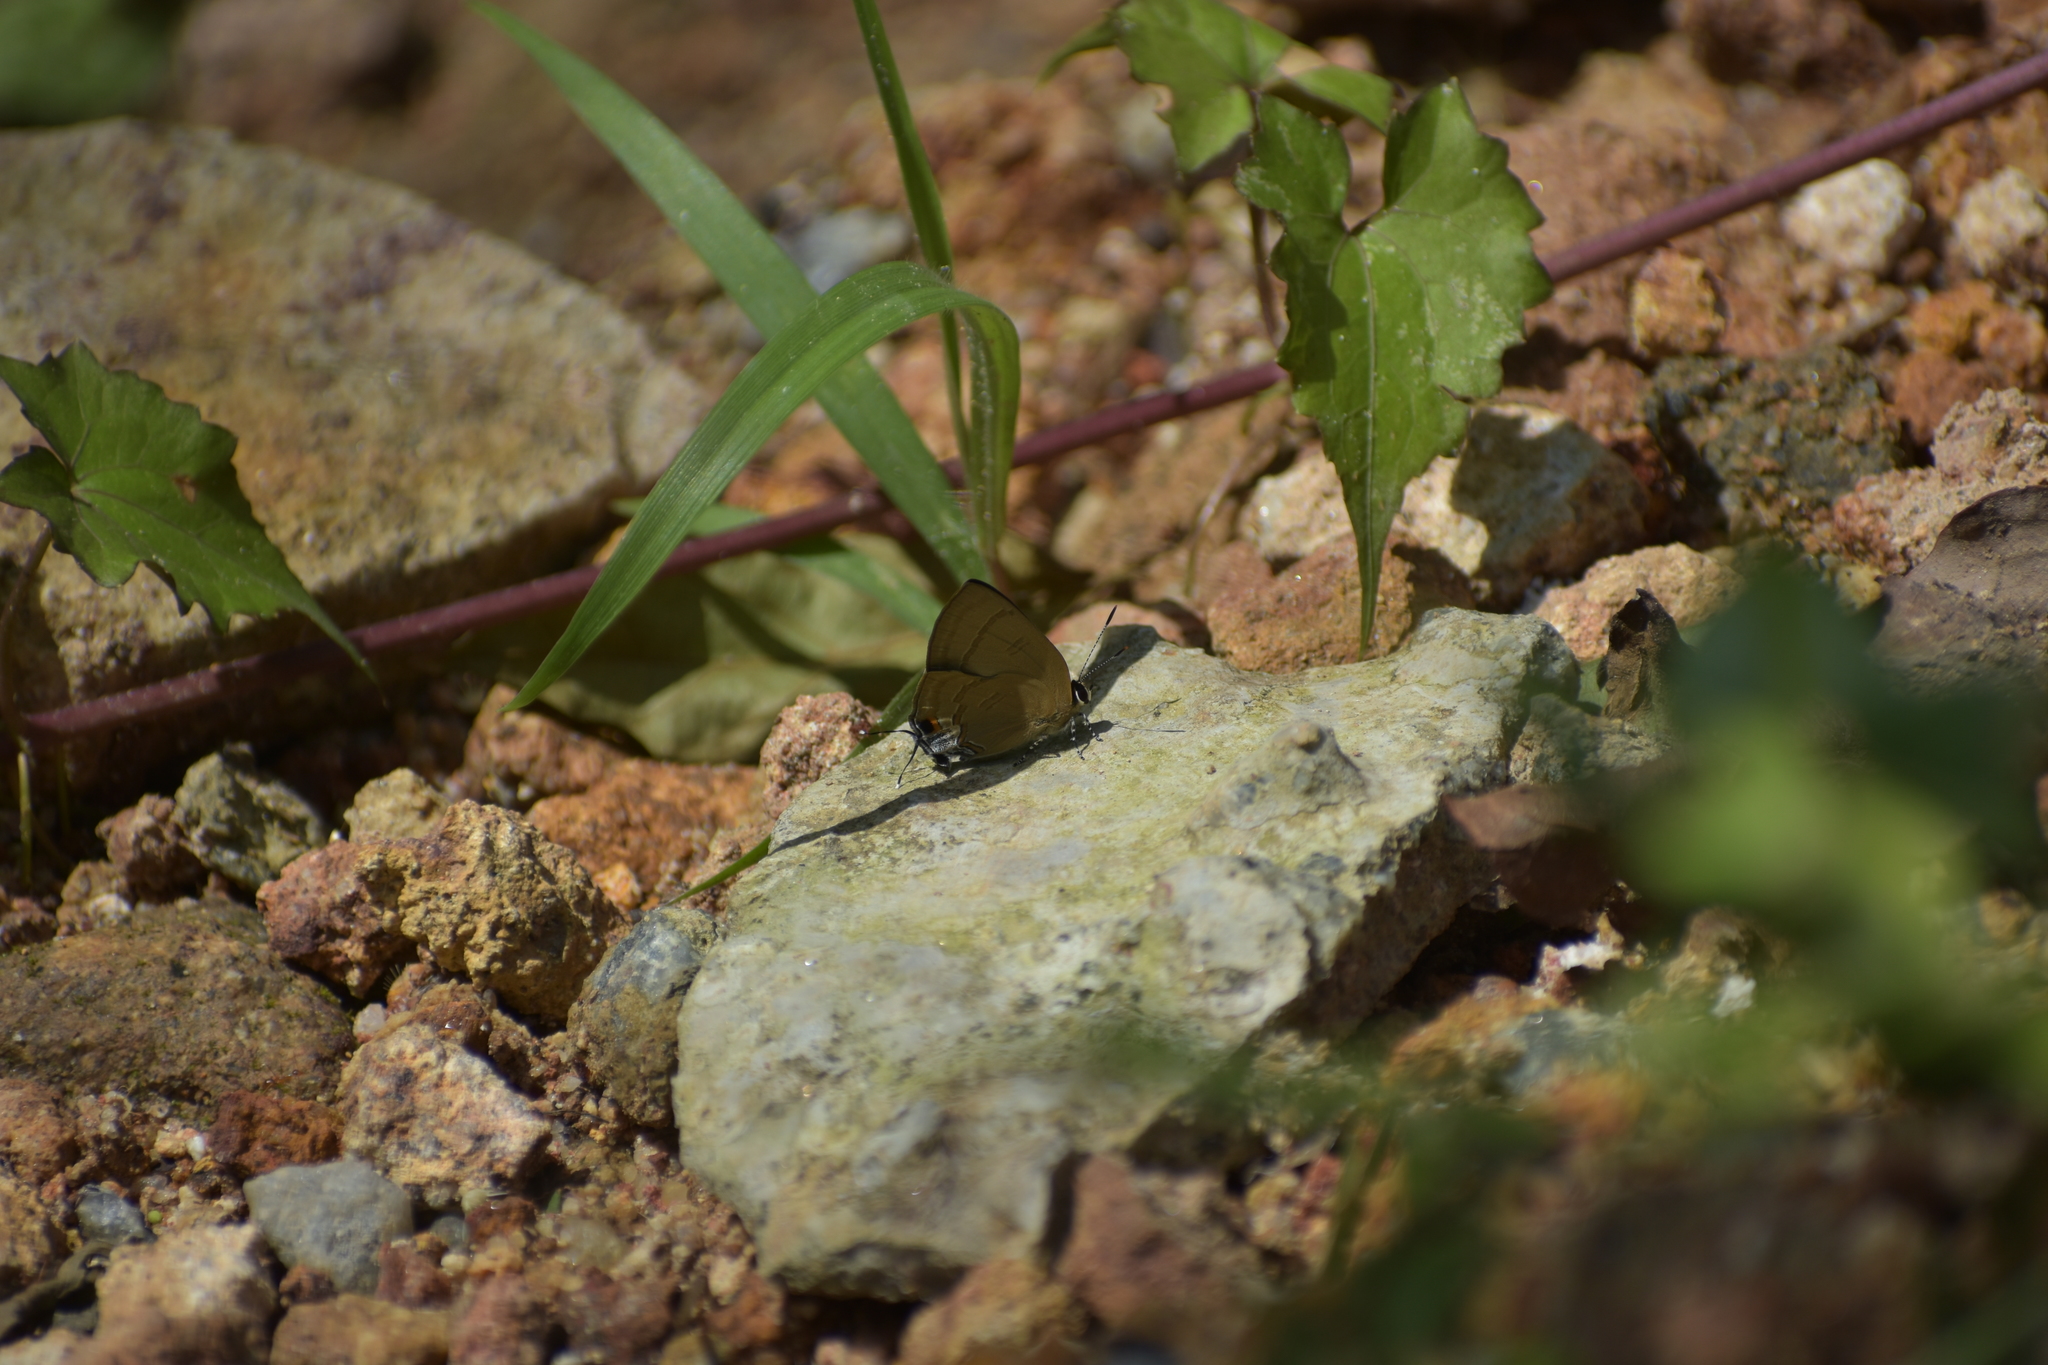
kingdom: Animalia
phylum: Arthropoda
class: Insecta
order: Lepidoptera
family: Lycaenidae
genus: Rapala
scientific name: Rapala manea
